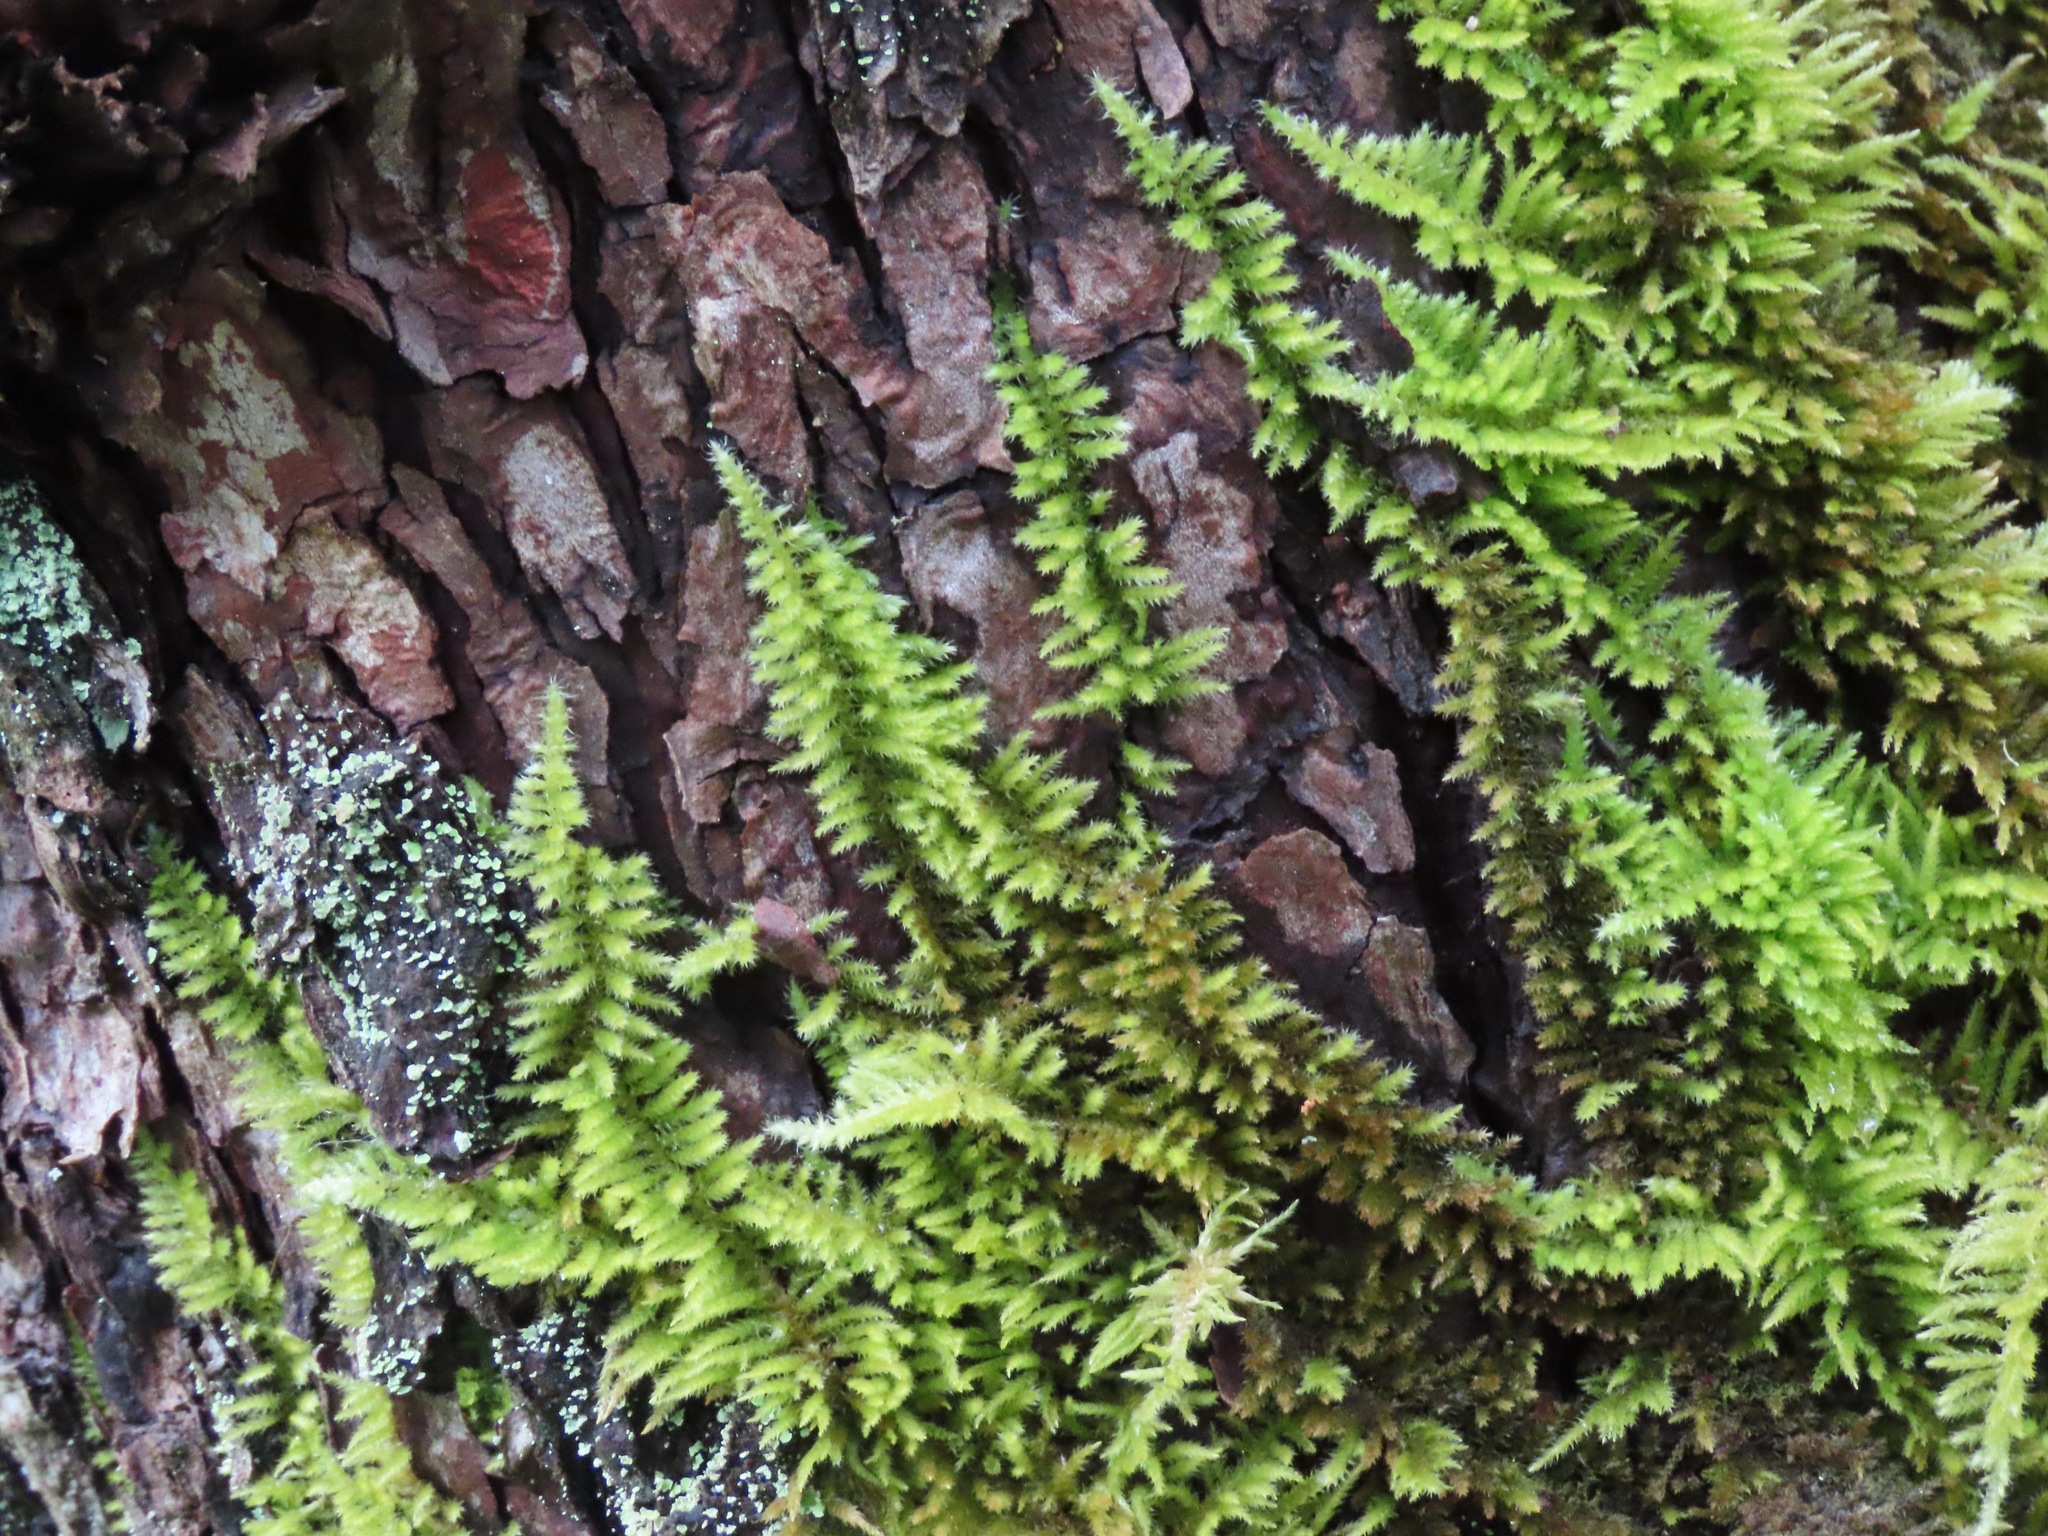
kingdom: Plantae
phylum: Bryophyta
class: Bryopsida
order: Hypnales
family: Brachytheciaceae
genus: Kindbergia
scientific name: Kindbergia oregana
